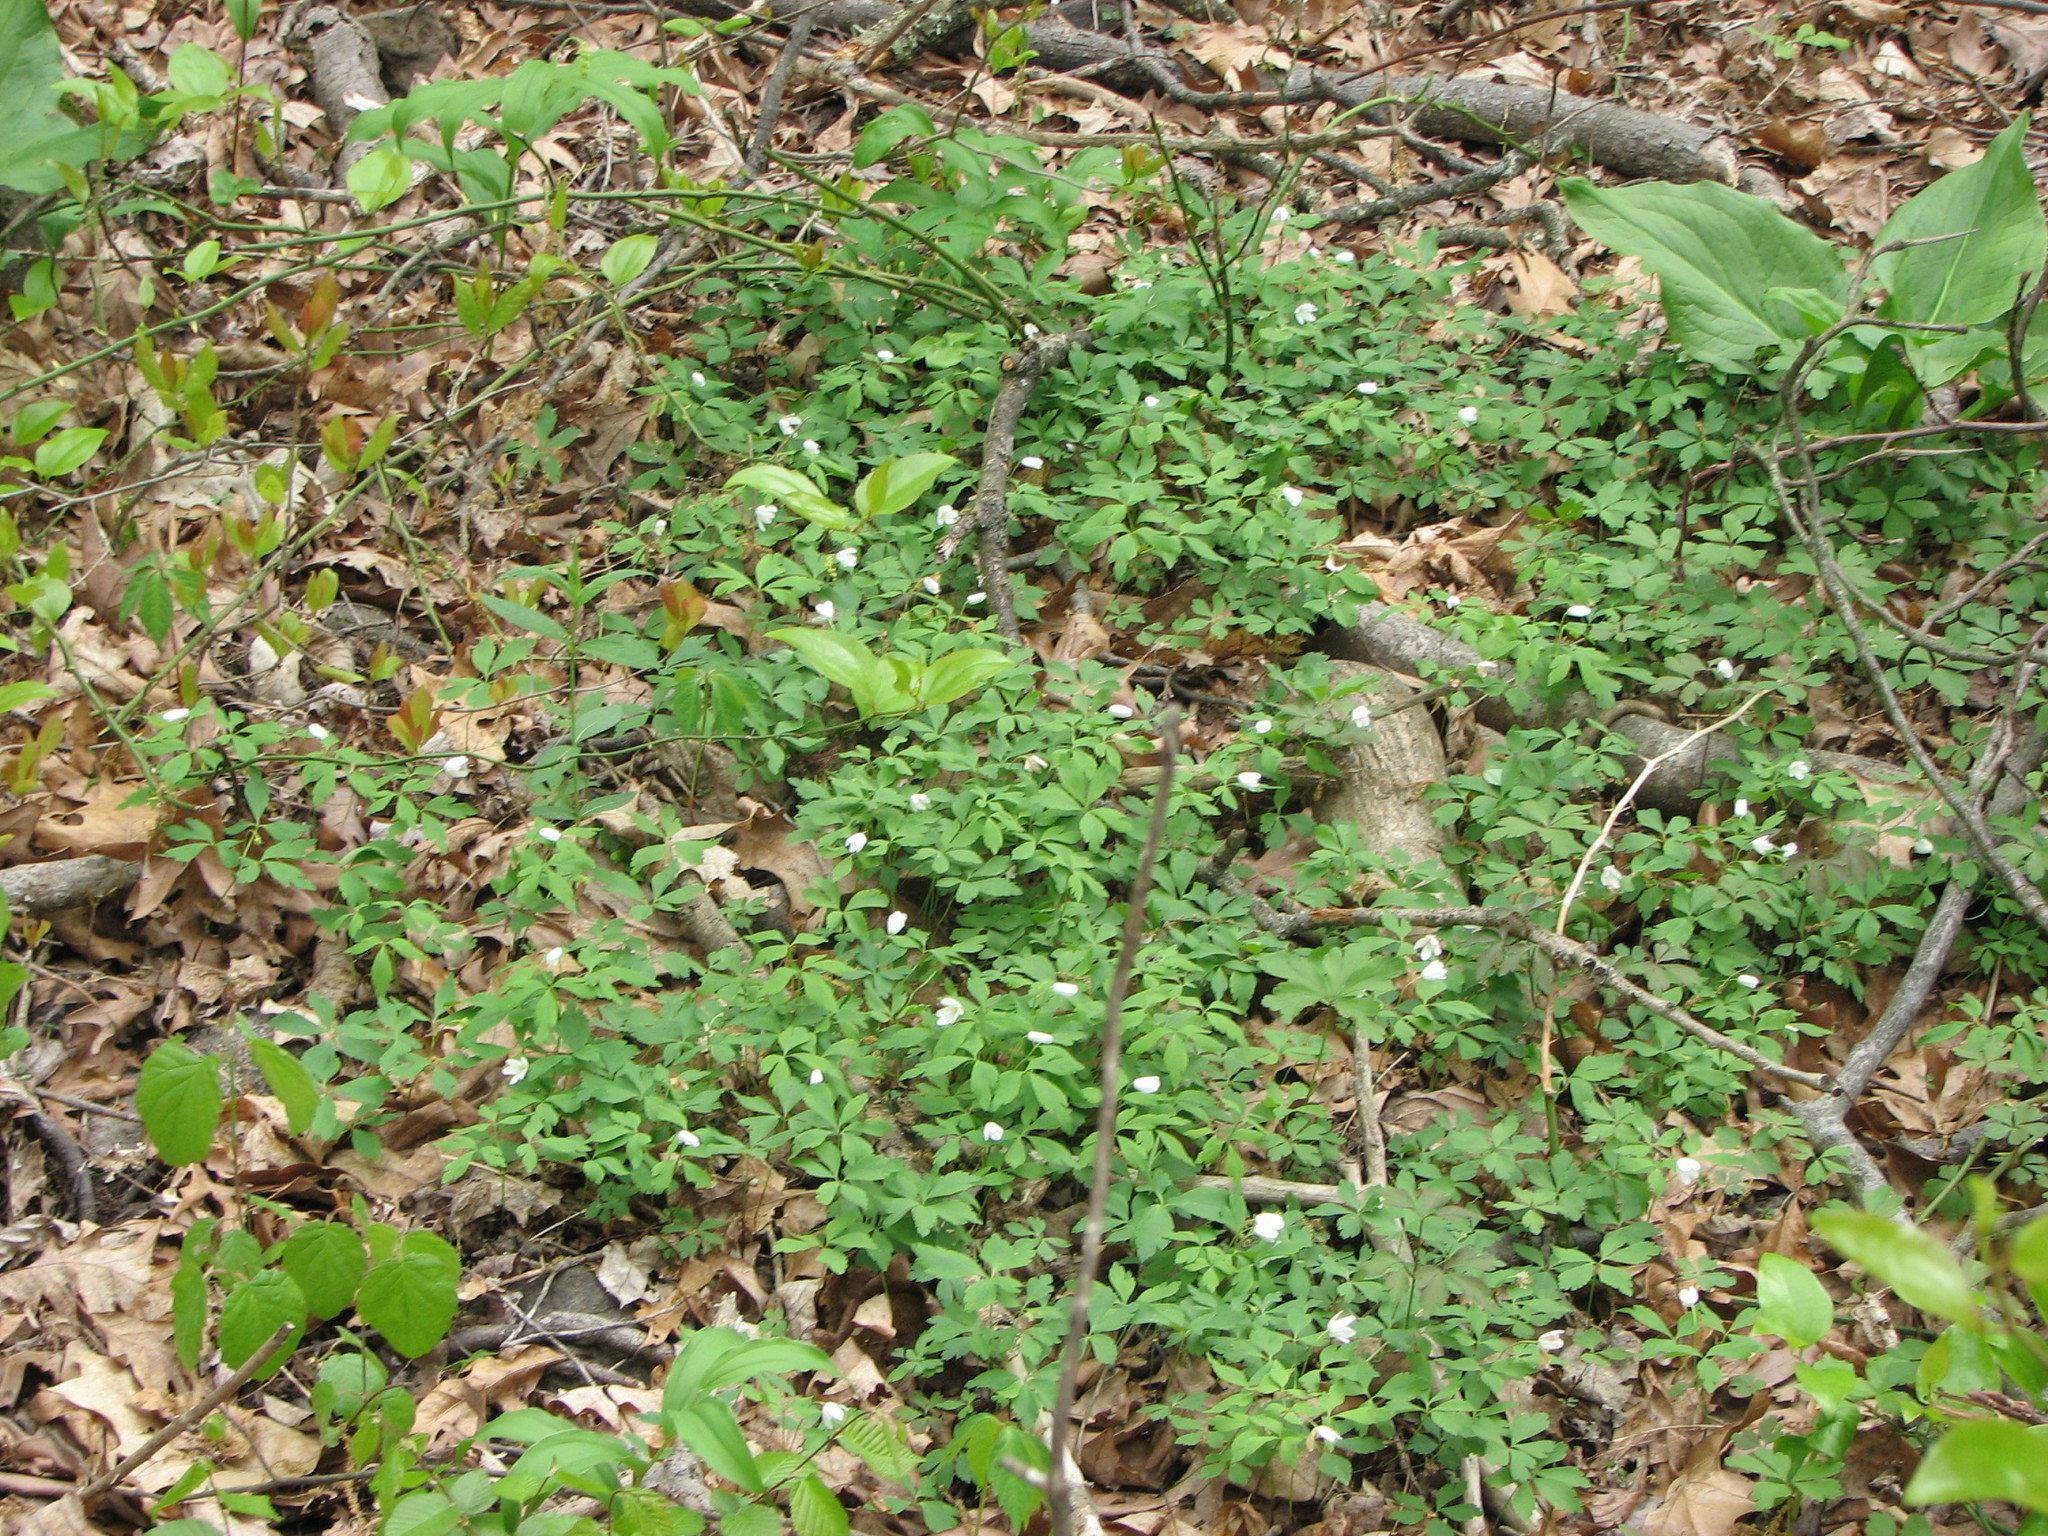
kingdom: Plantae
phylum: Tracheophyta
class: Magnoliopsida
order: Ranunculales
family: Ranunculaceae
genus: Anemone
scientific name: Anemone quinquefolia
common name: Wood anemone
